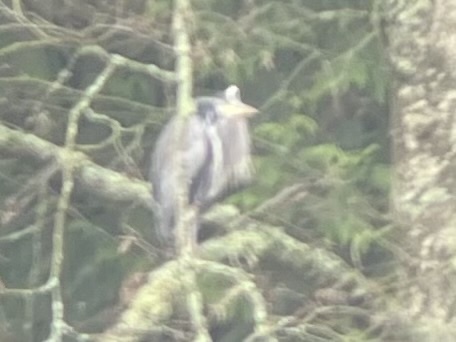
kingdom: Animalia
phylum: Chordata
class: Aves
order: Pelecaniformes
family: Ardeidae
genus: Ardea
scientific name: Ardea herodias
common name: Great blue heron
